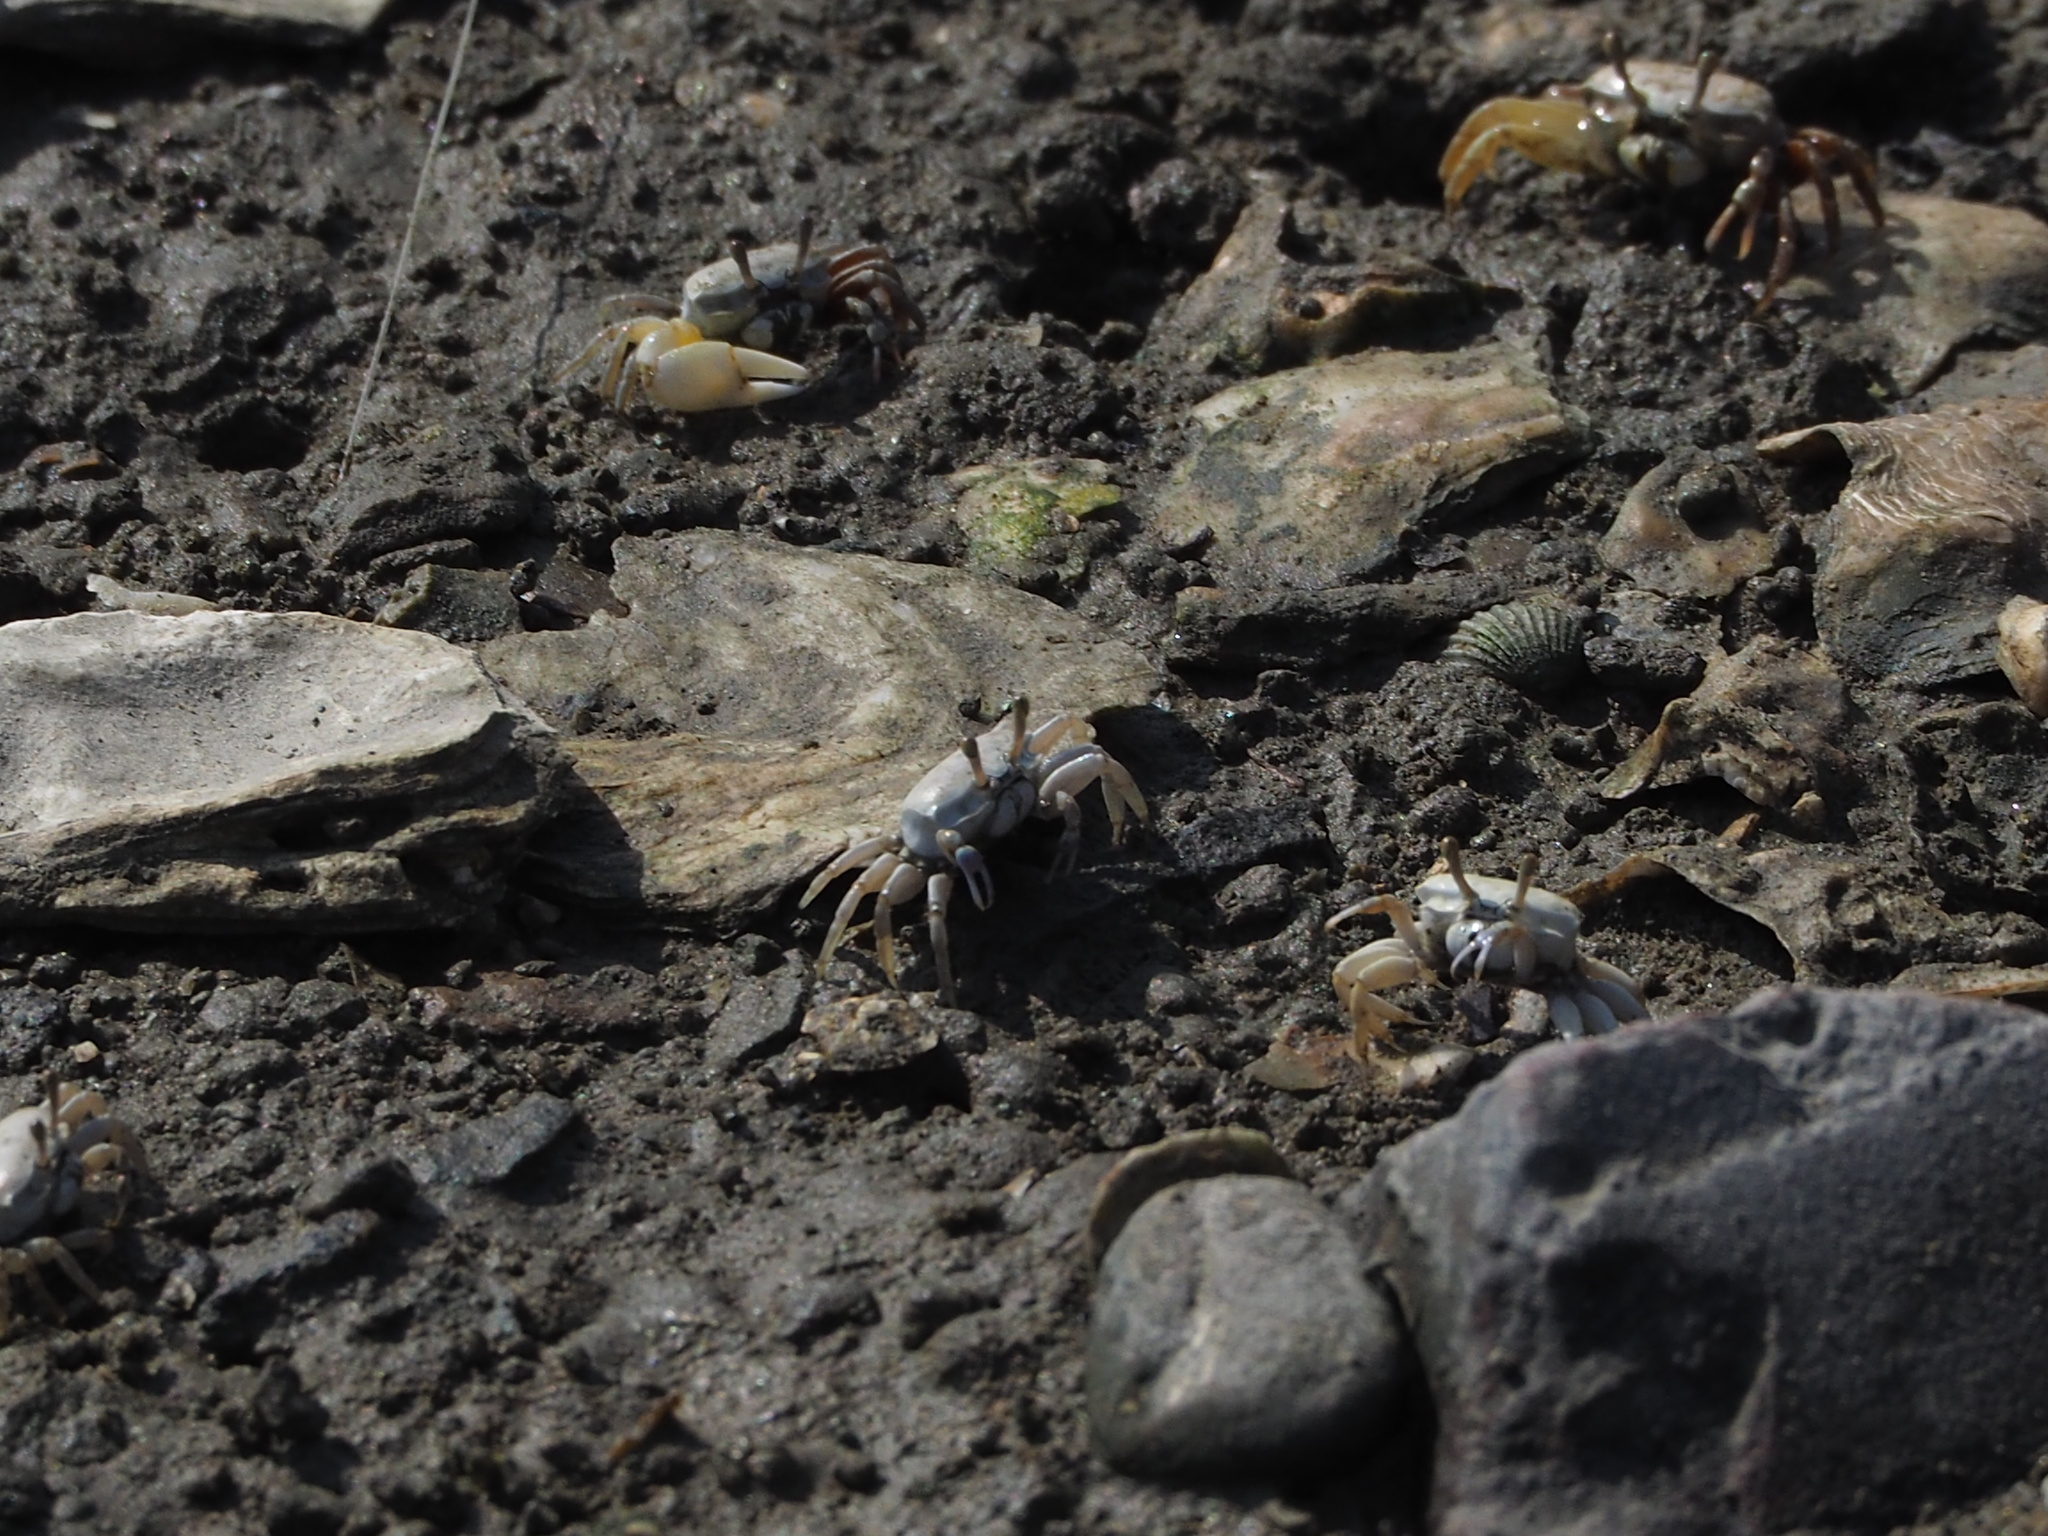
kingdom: Animalia
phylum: Arthropoda
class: Malacostraca
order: Decapoda
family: Ocypodidae
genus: Austruca
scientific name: Austruca lactea
